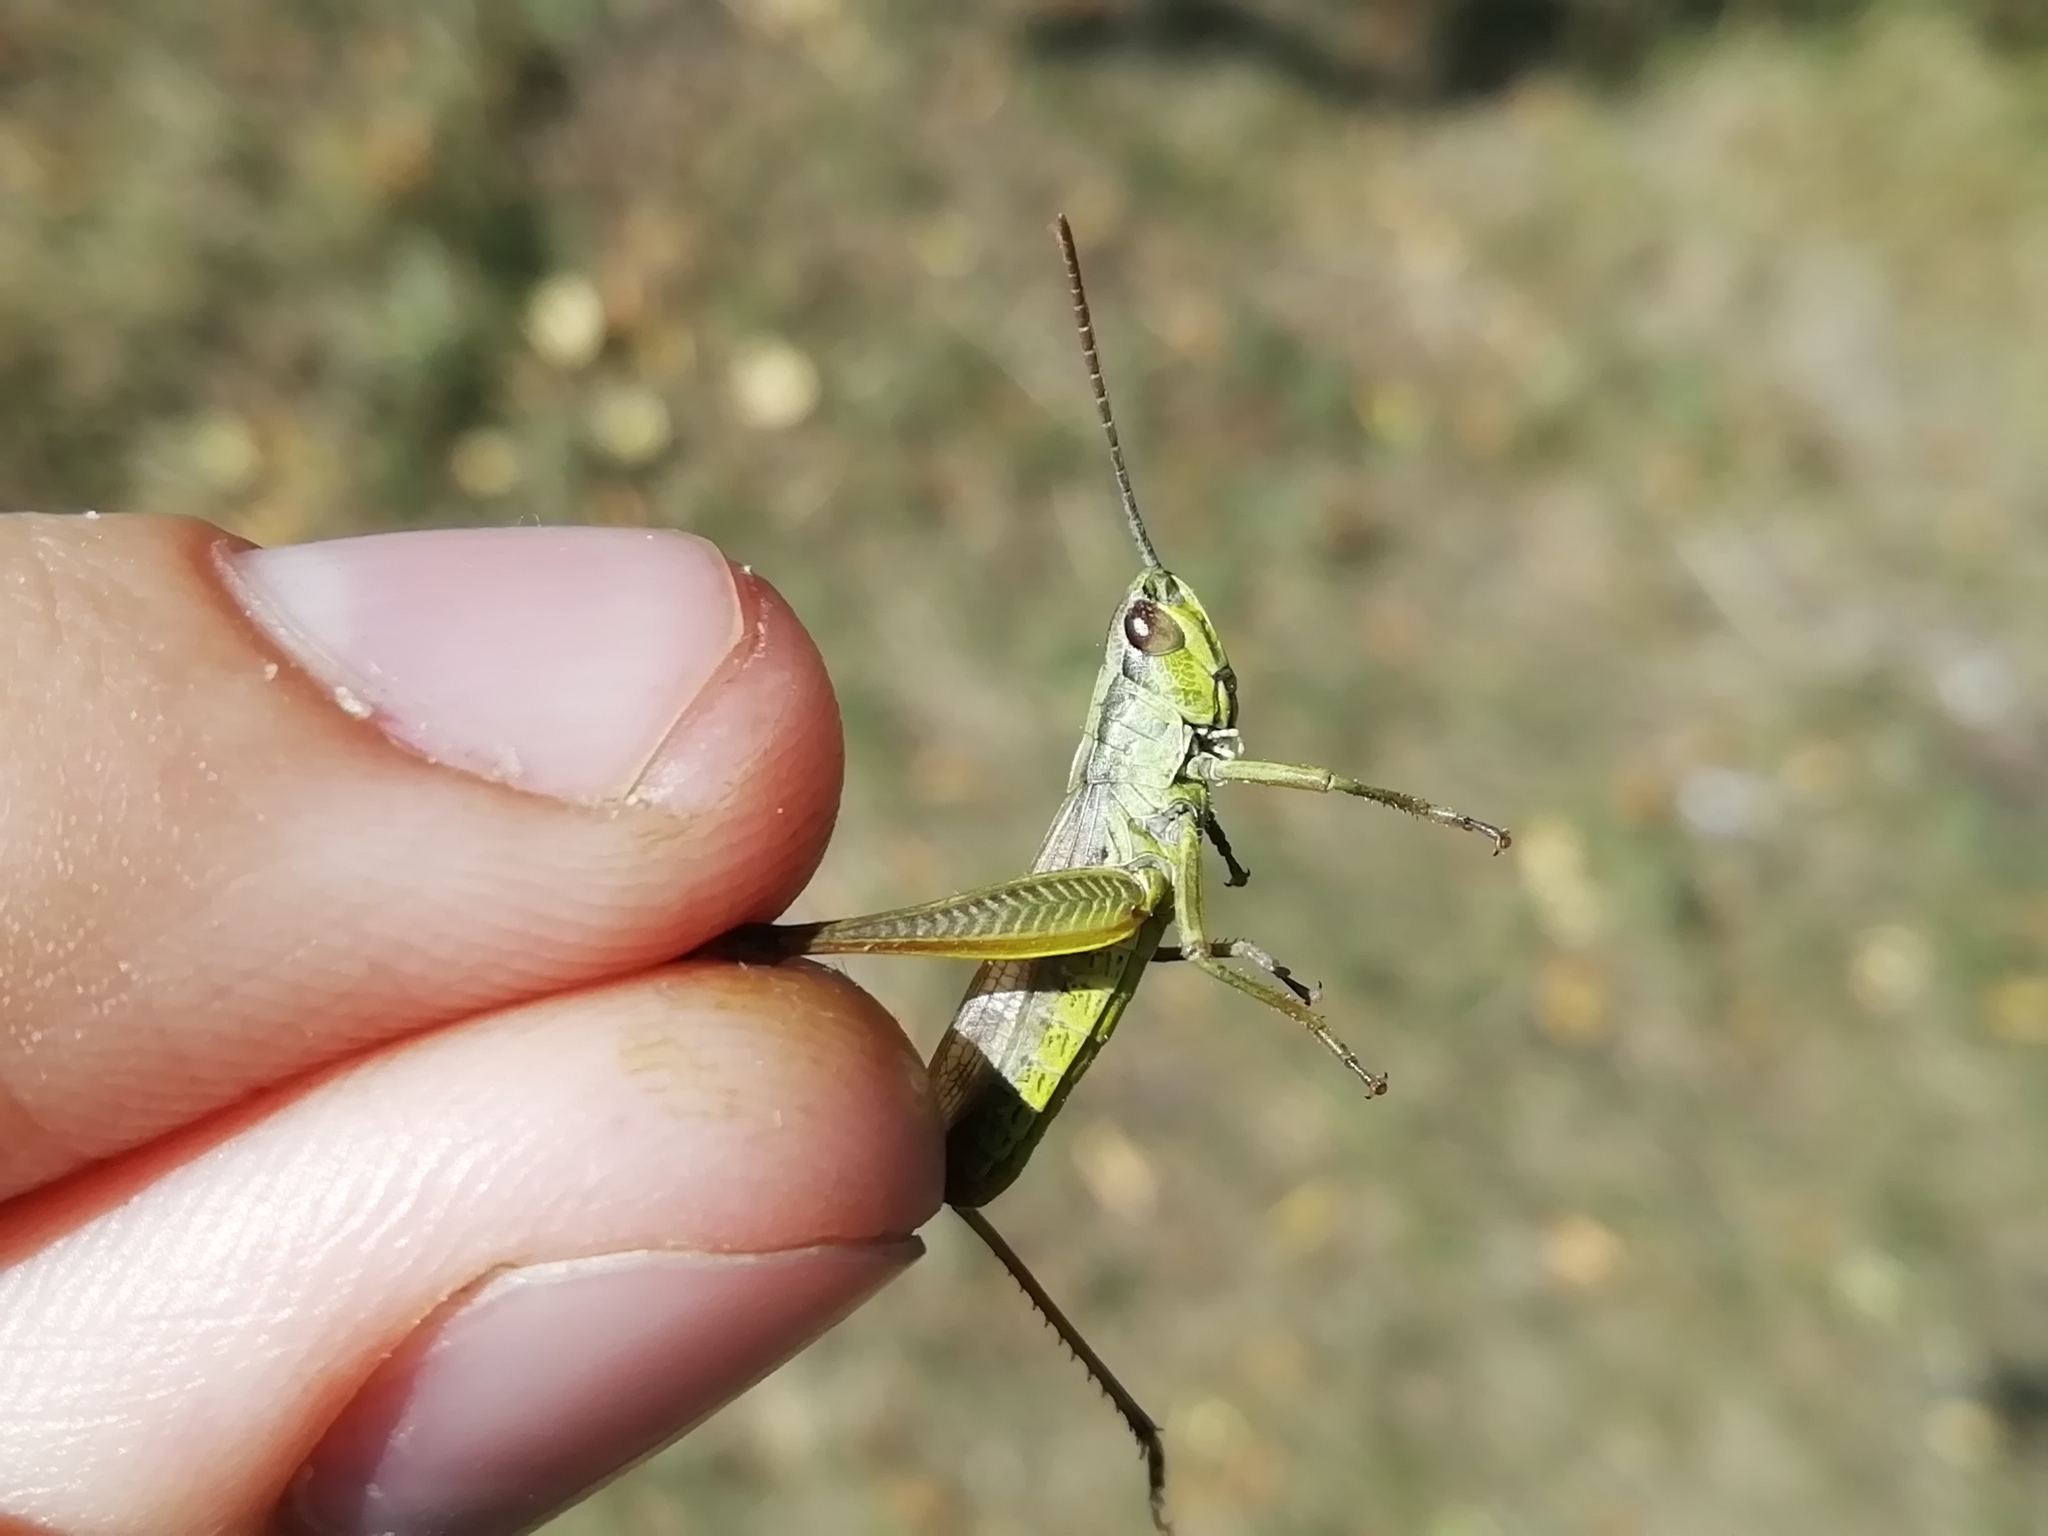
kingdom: Animalia
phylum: Arthropoda
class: Insecta
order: Orthoptera
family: Acrididae
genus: Pseudochorthippus
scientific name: Pseudochorthippus parallelus
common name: Meadow grasshopper
